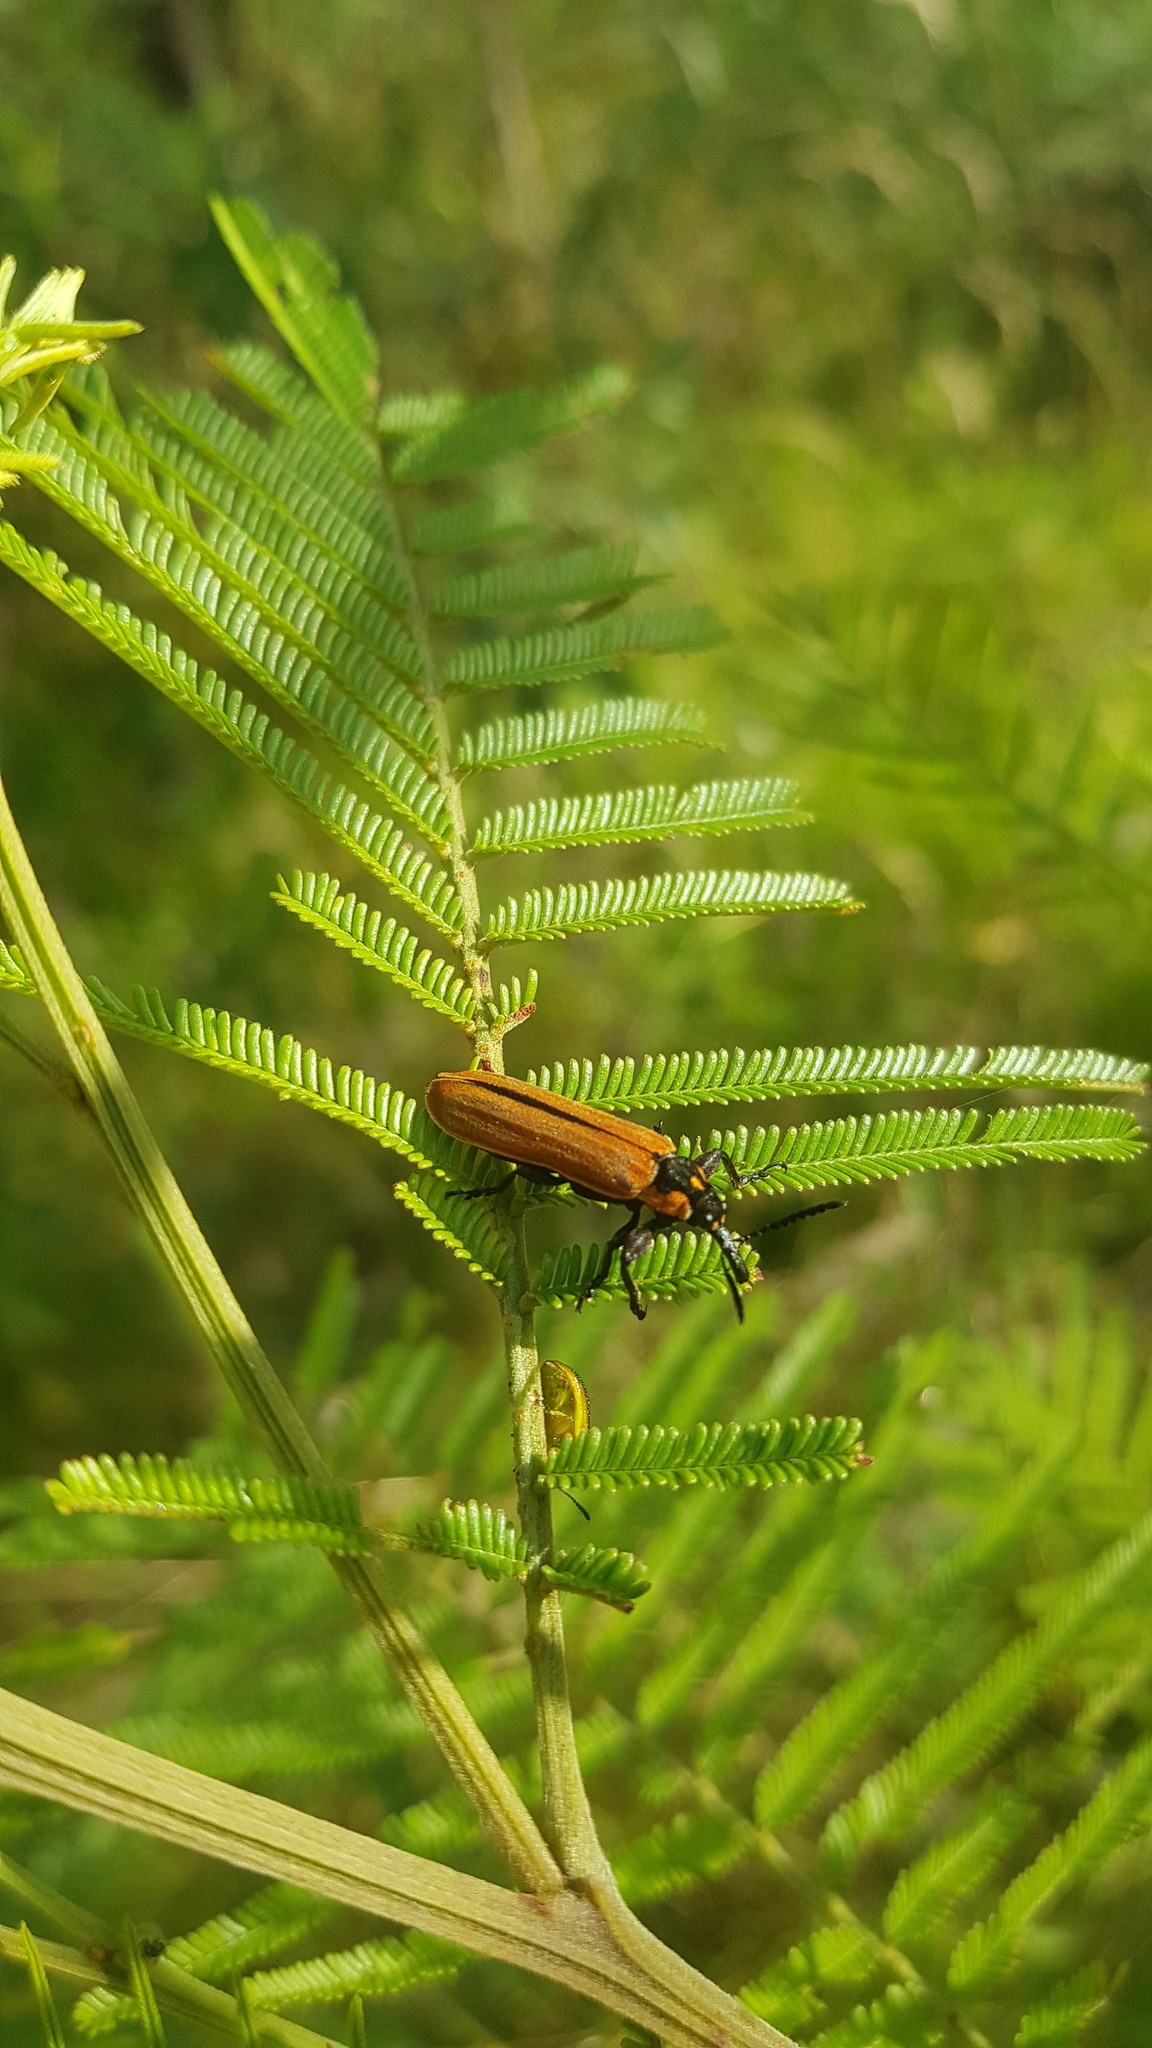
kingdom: Animalia
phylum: Arthropoda
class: Insecta
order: Coleoptera
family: Belidae
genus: Rhinotia
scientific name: Rhinotia haemoptera
